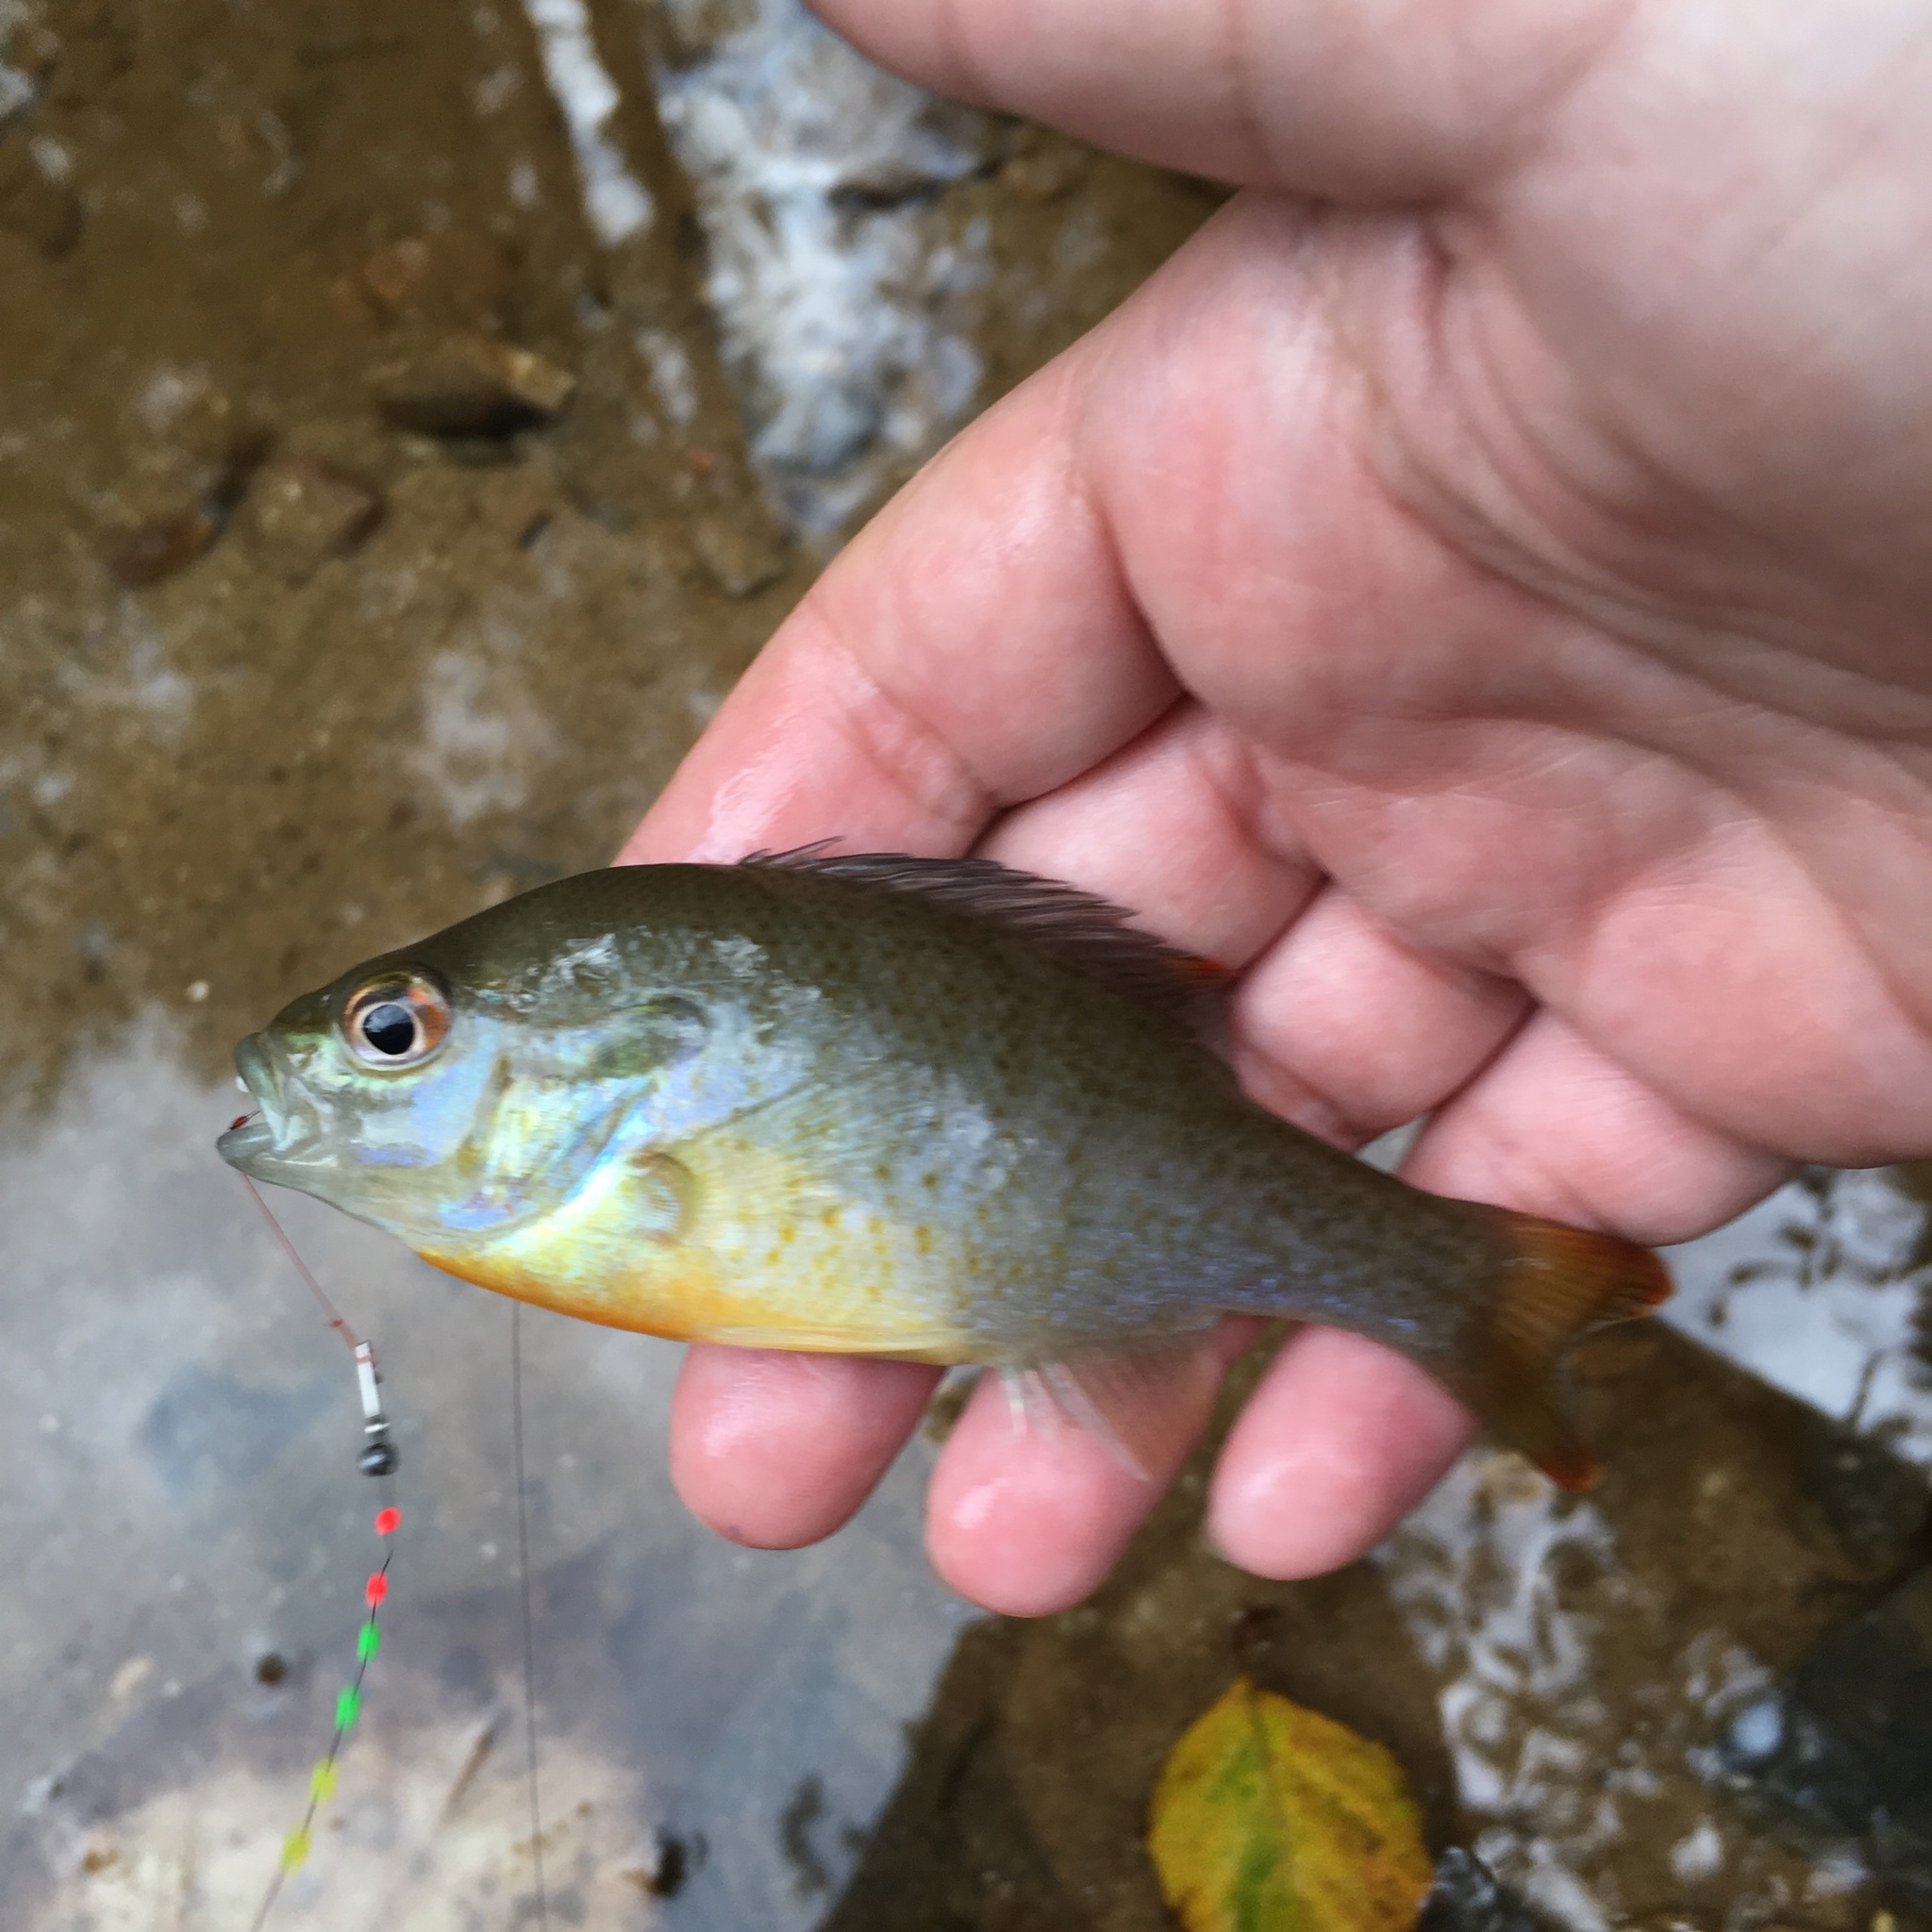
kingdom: Animalia
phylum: Chordata
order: Perciformes
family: Centrarchidae
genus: Lepomis
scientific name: Lepomis auritus
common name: Redbreast sunfish
